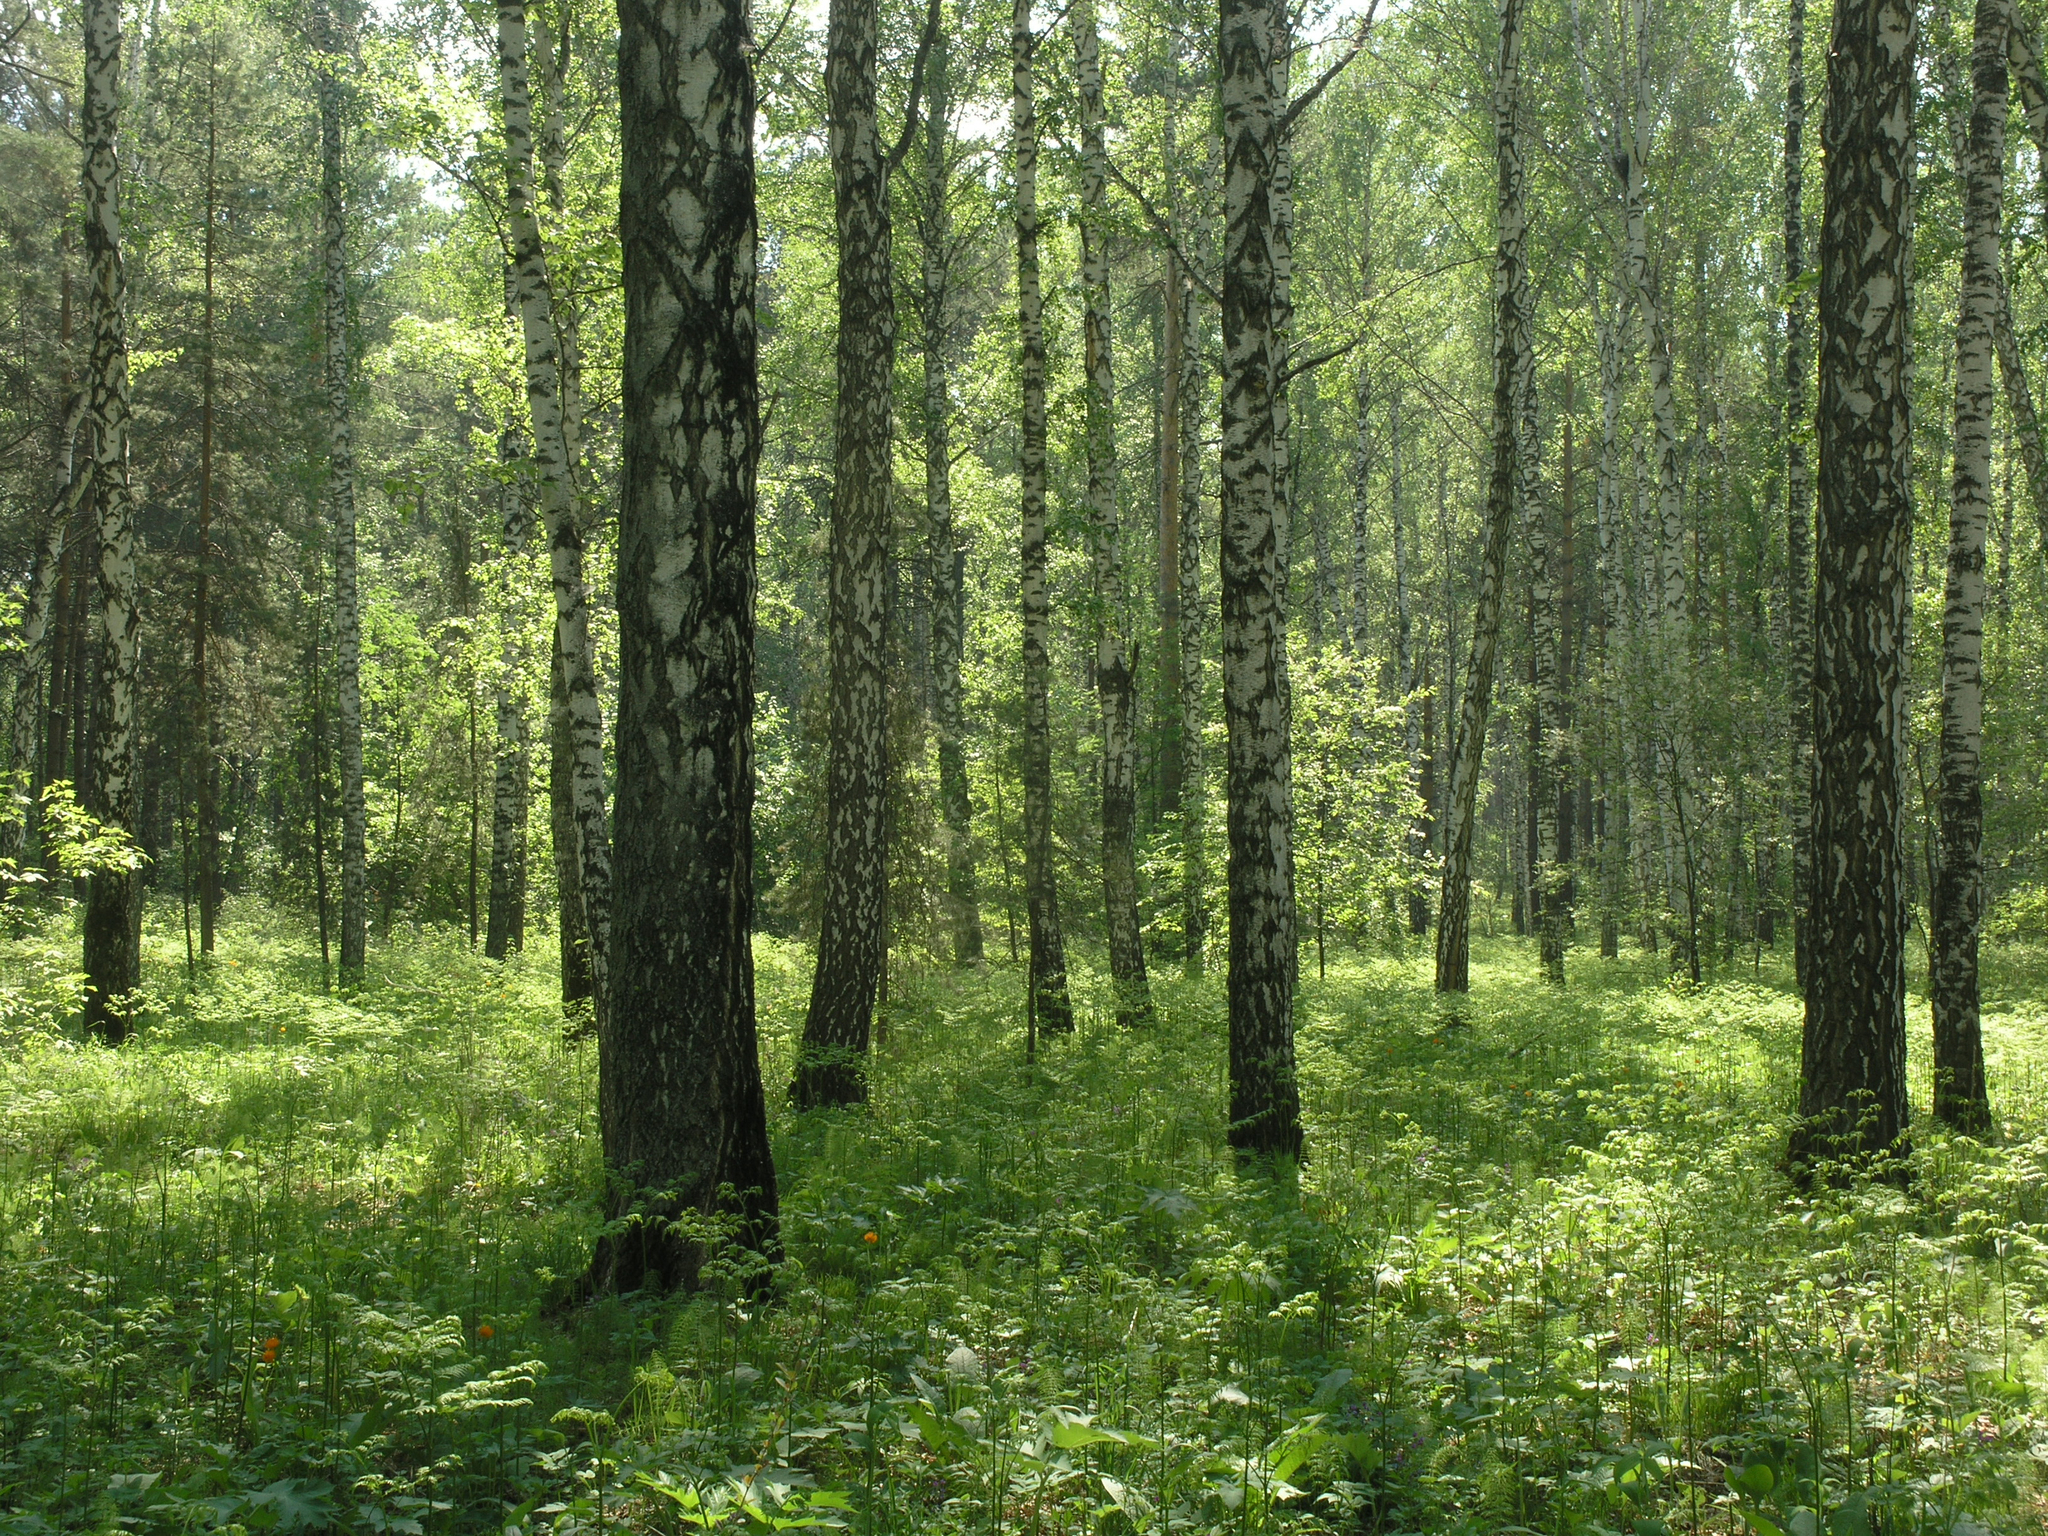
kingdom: Plantae
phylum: Tracheophyta
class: Magnoliopsida
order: Fagales
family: Betulaceae
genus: Betula
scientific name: Betula pendula
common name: Silver birch
